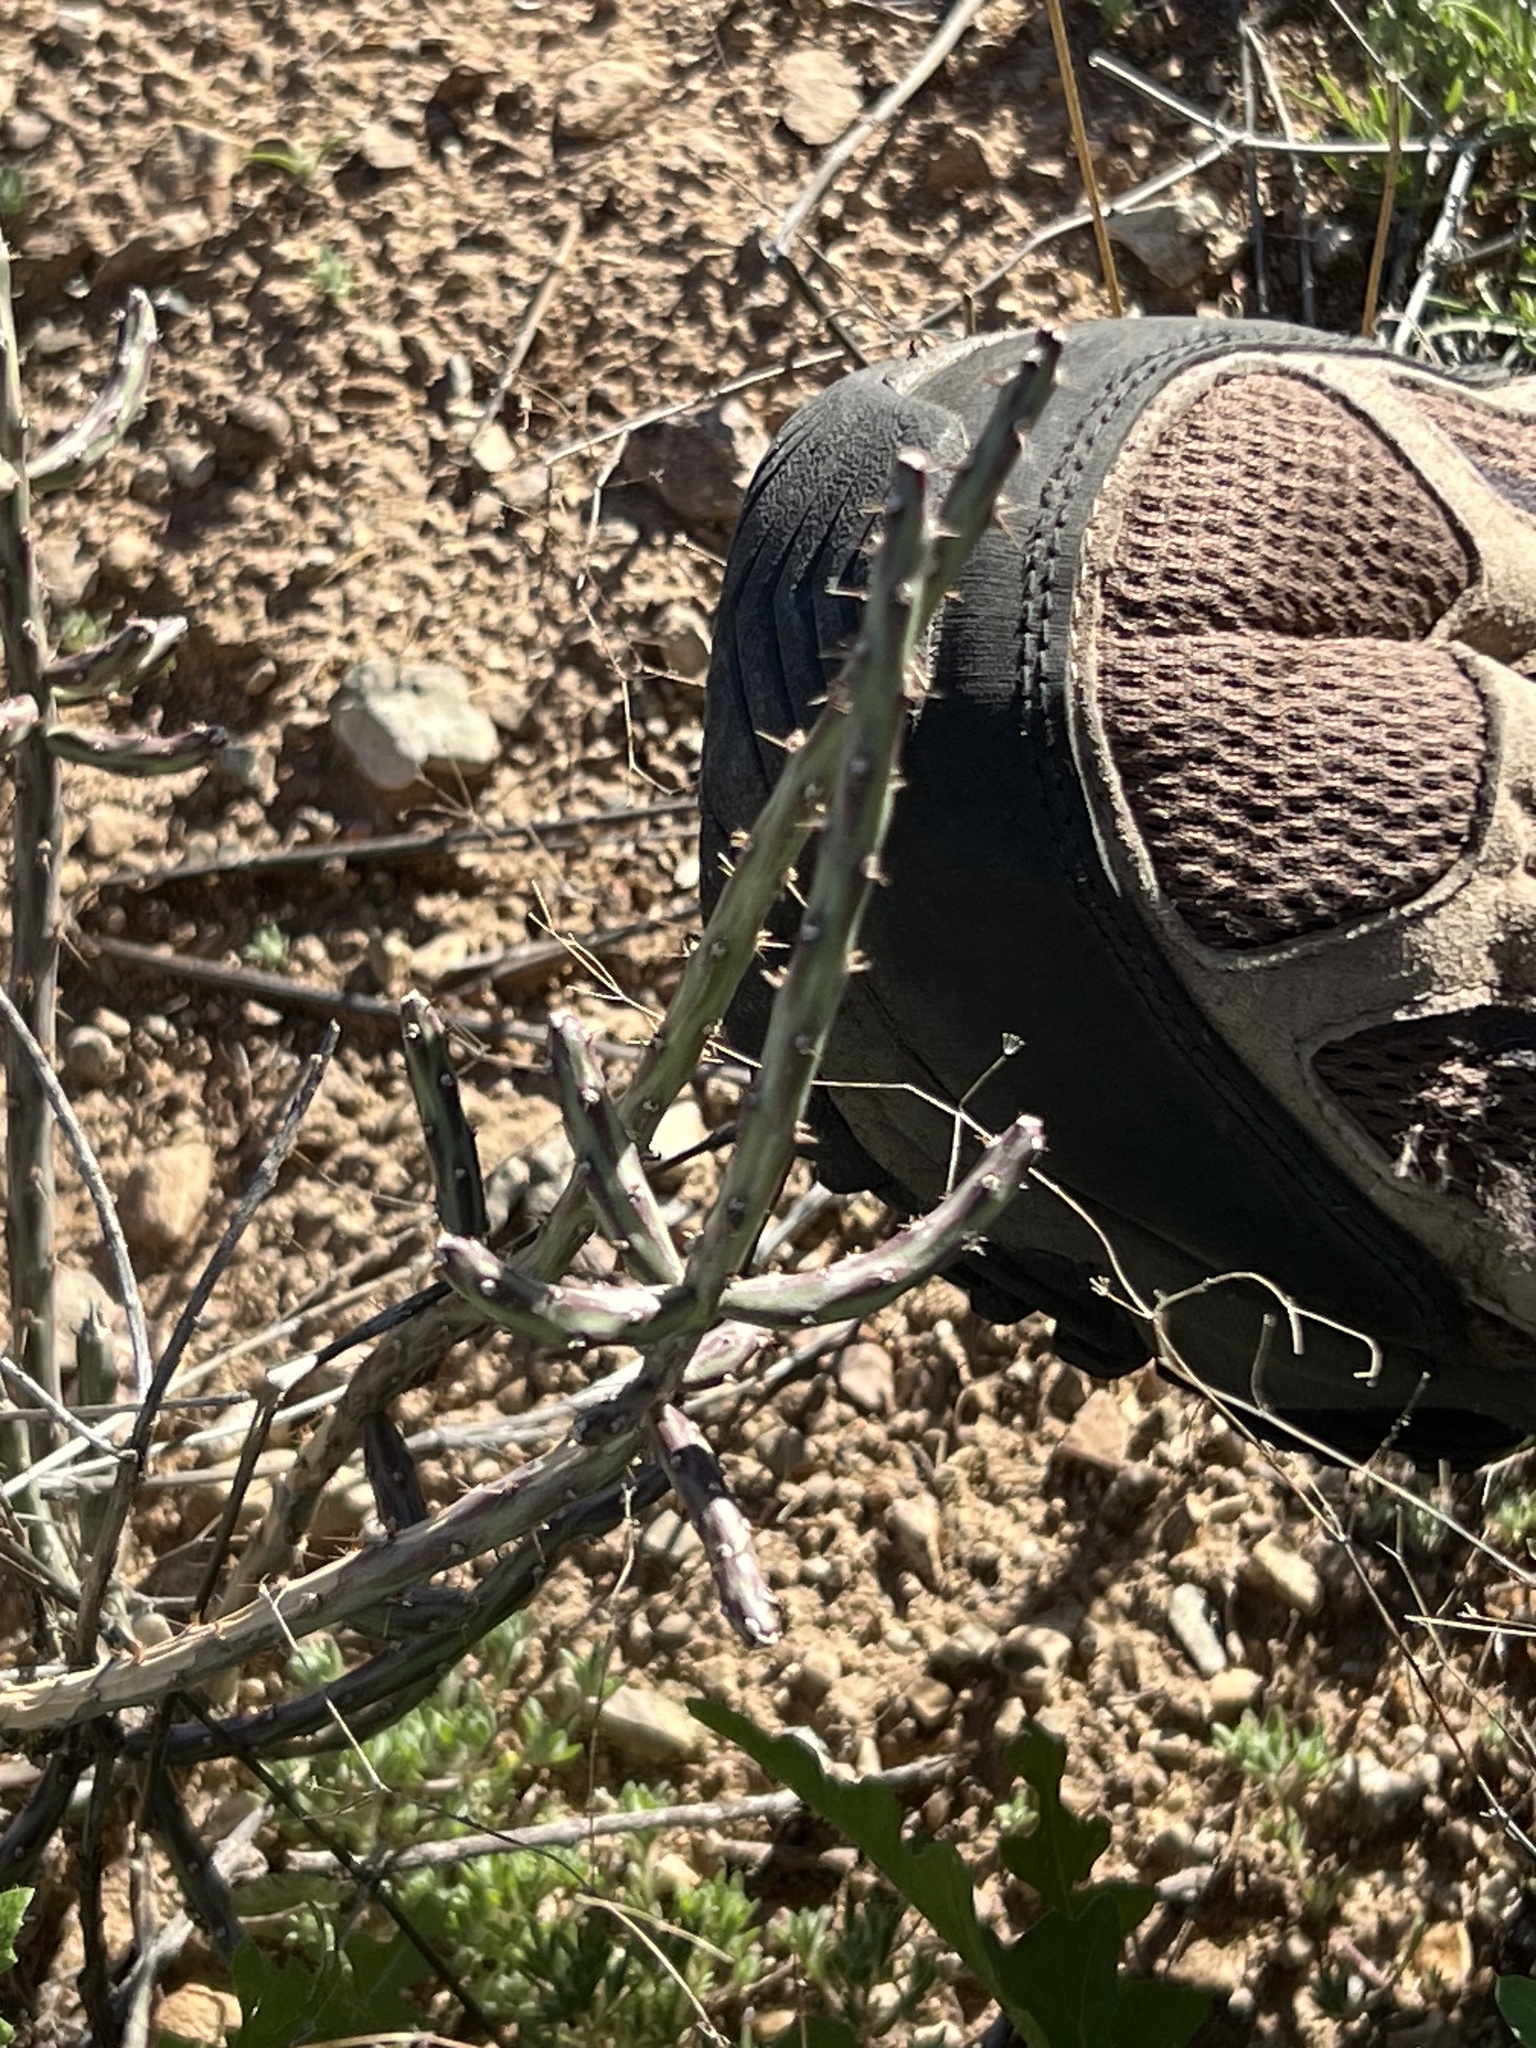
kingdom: Plantae
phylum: Tracheophyta
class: Magnoliopsida
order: Caryophyllales
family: Cactaceae
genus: Cylindropuntia
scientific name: Cylindropuntia leptocaulis
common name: Christmas cactus
